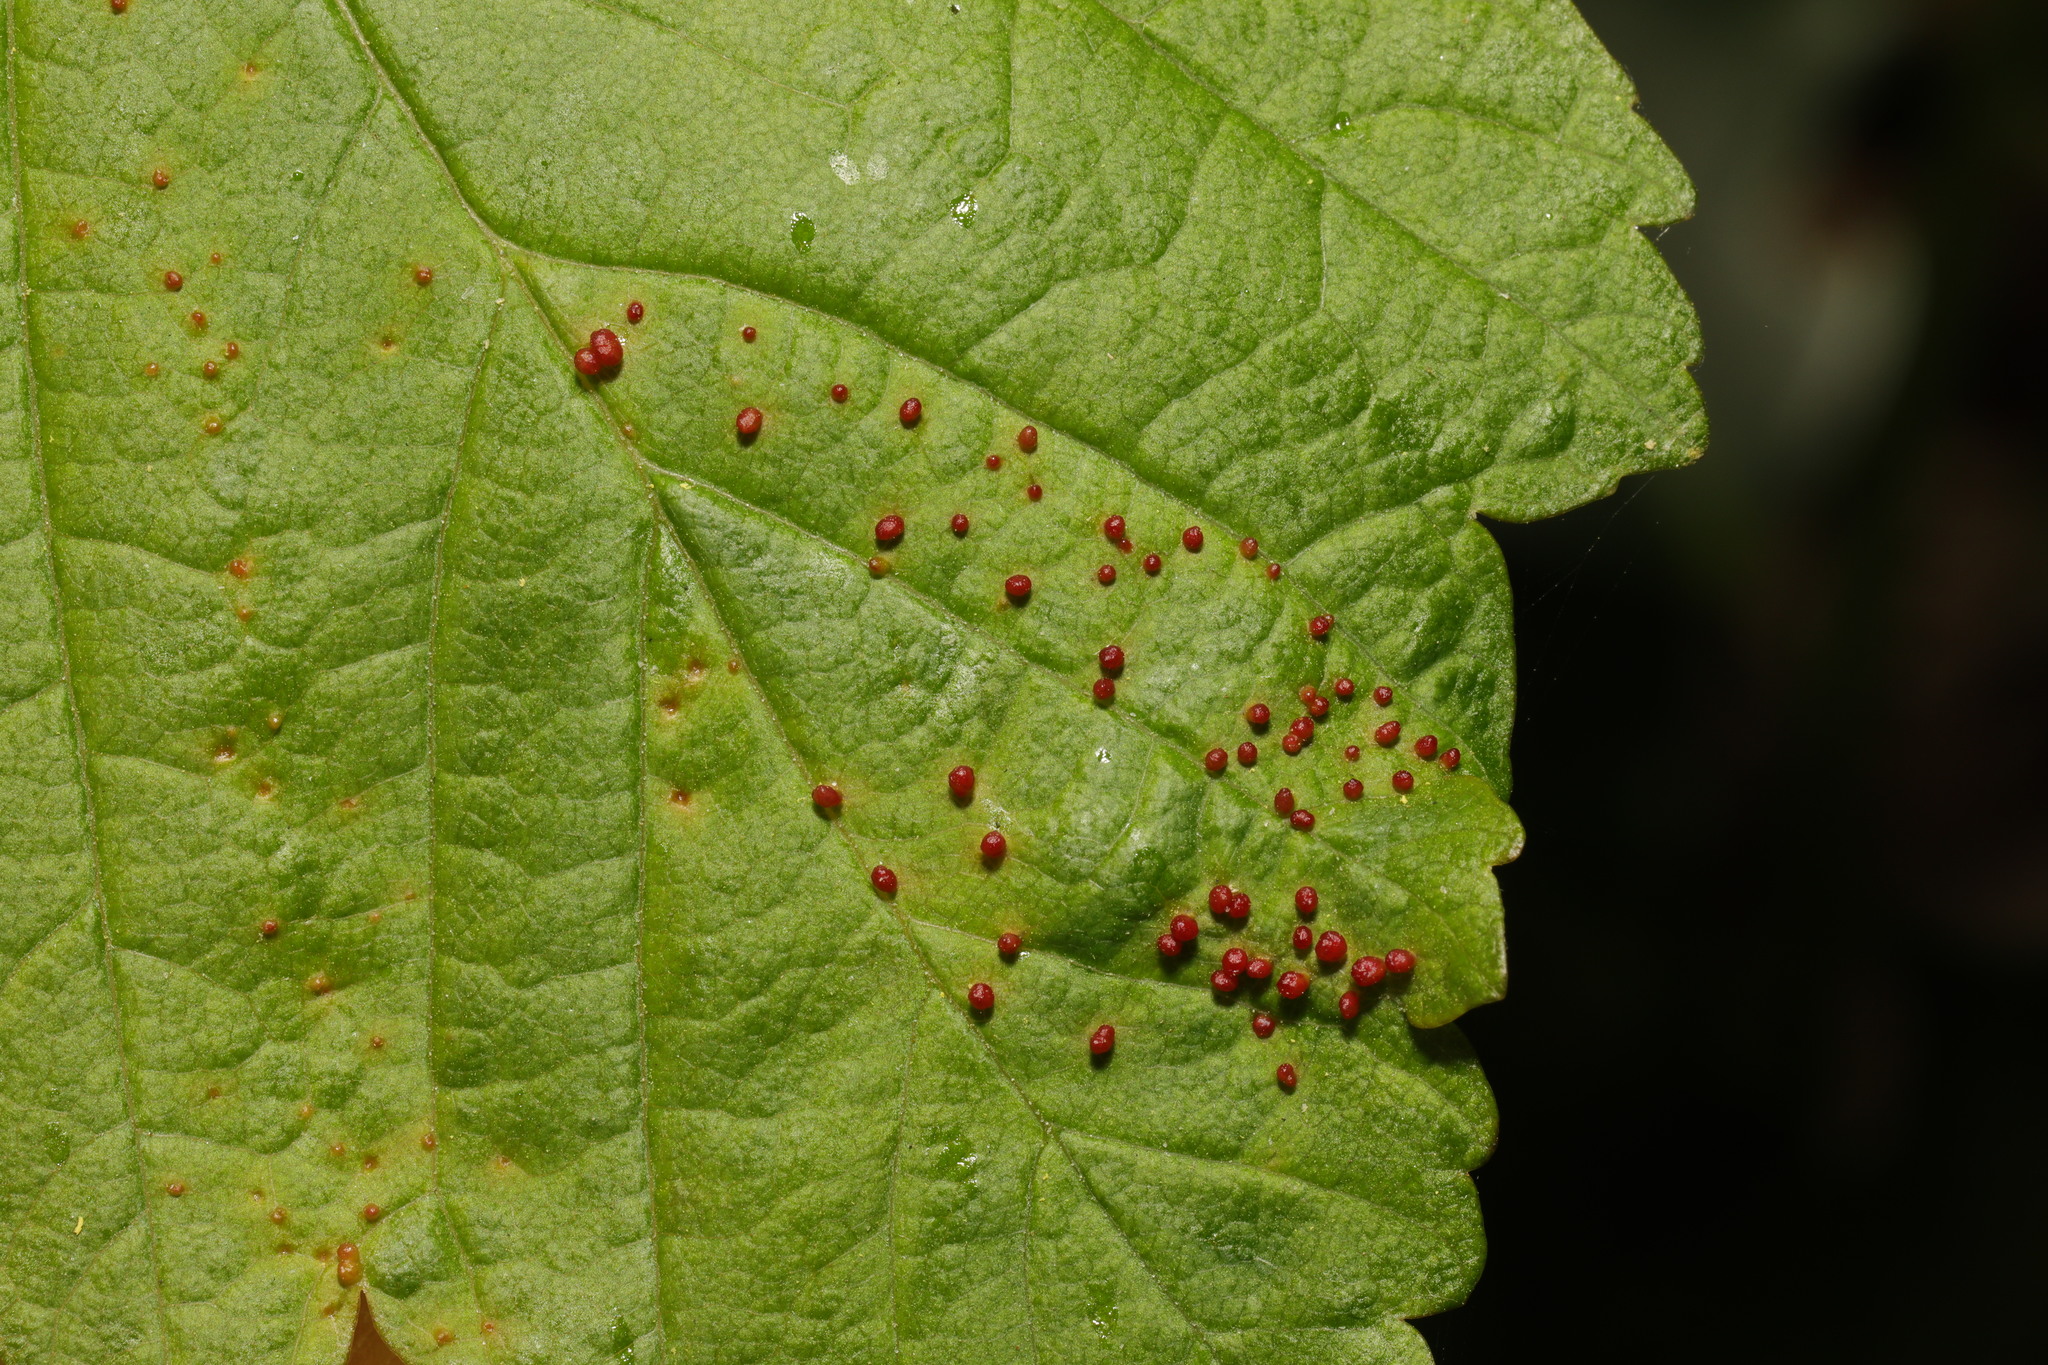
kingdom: Animalia
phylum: Arthropoda
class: Arachnida
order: Trombidiformes
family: Eriophyidae
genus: Aceria
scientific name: Aceria cephaloneus
